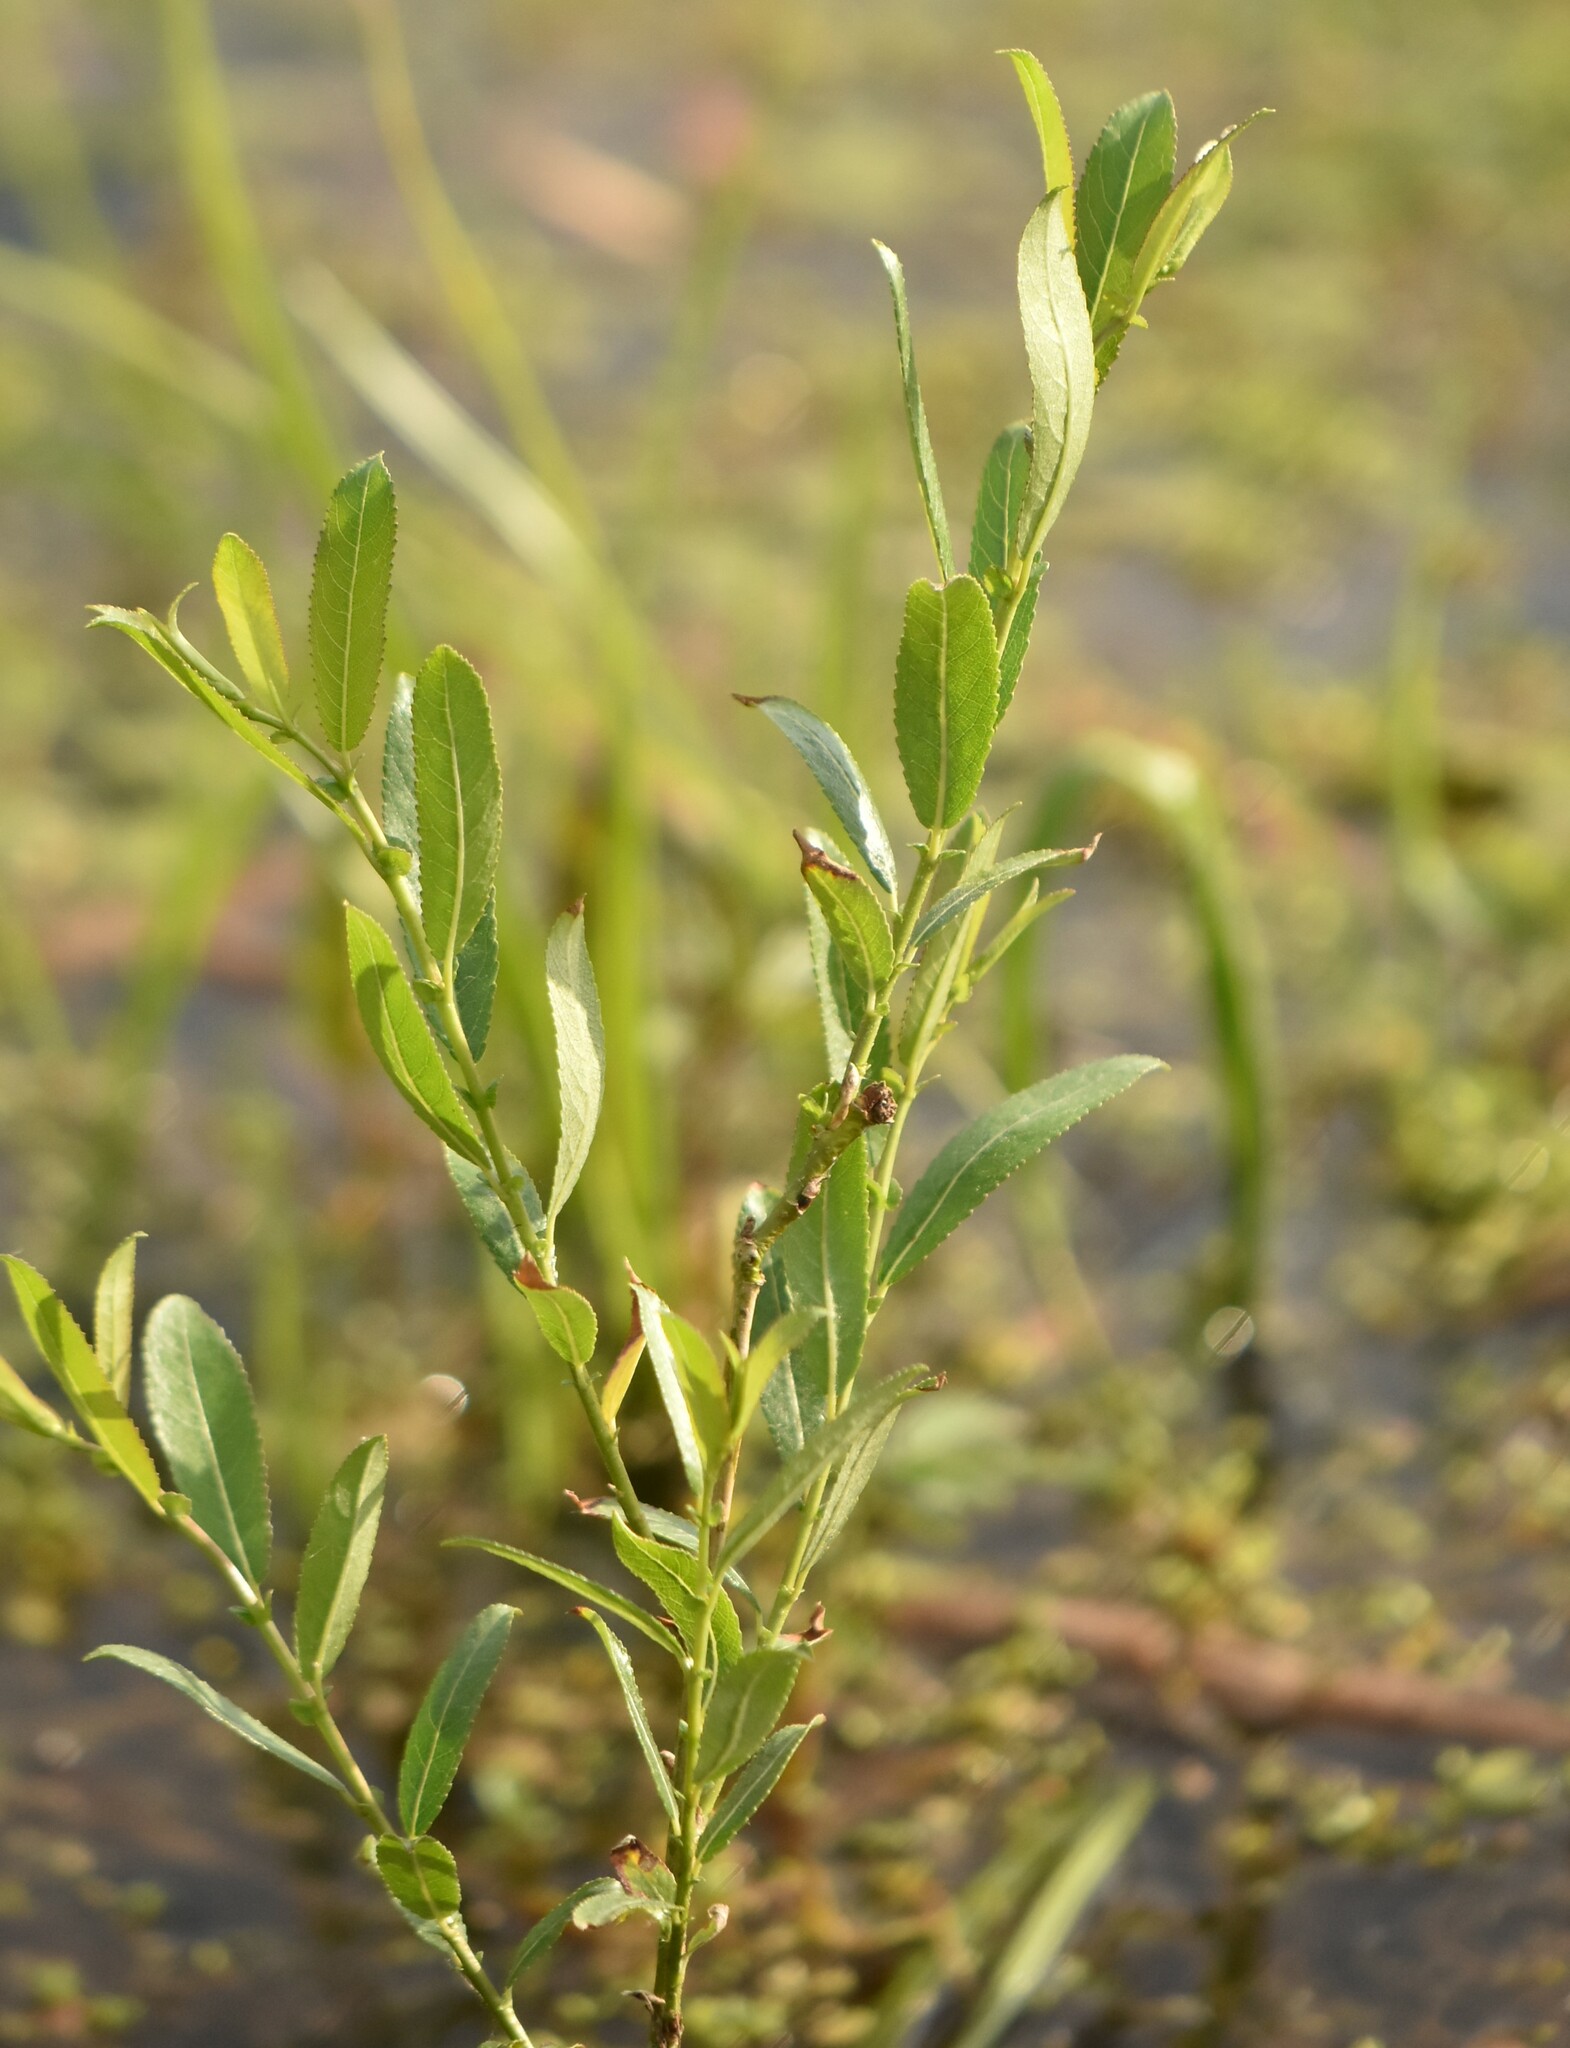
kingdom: Plantae
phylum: Tracheophyta
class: Magnoliopsida
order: Malpighiales
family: Salicaceae
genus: Salix
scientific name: Salix triandra
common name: Almond willow
